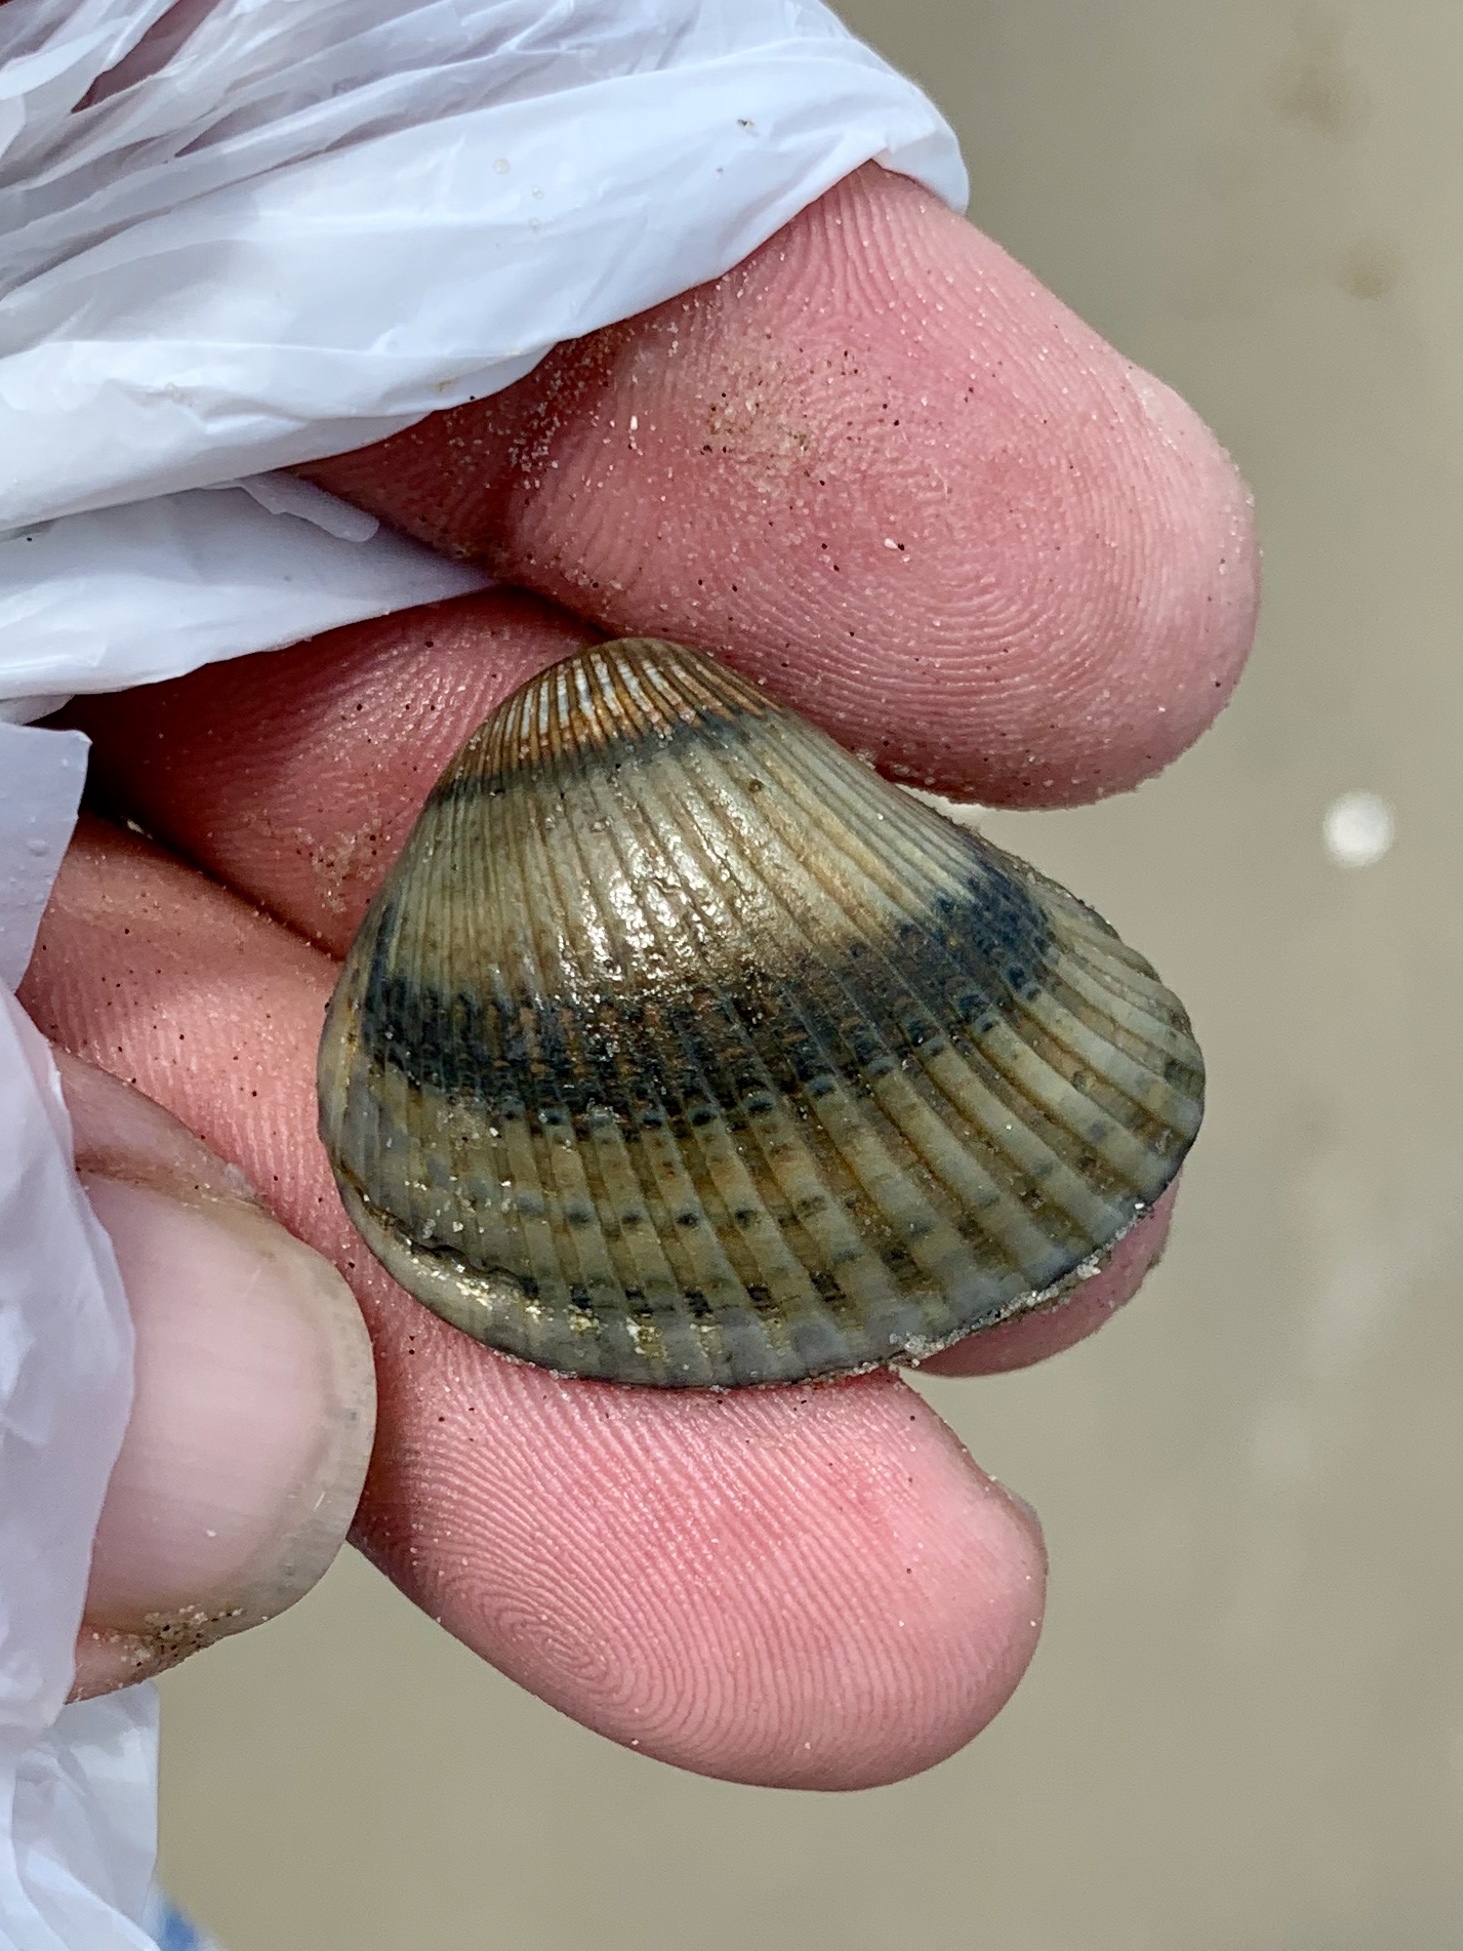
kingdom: Animalia
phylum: Mollusca
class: Bivalvia
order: Arcida
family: Noetiidae
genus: Noetia
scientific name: Noetia ponderosa
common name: Ponderous ark
